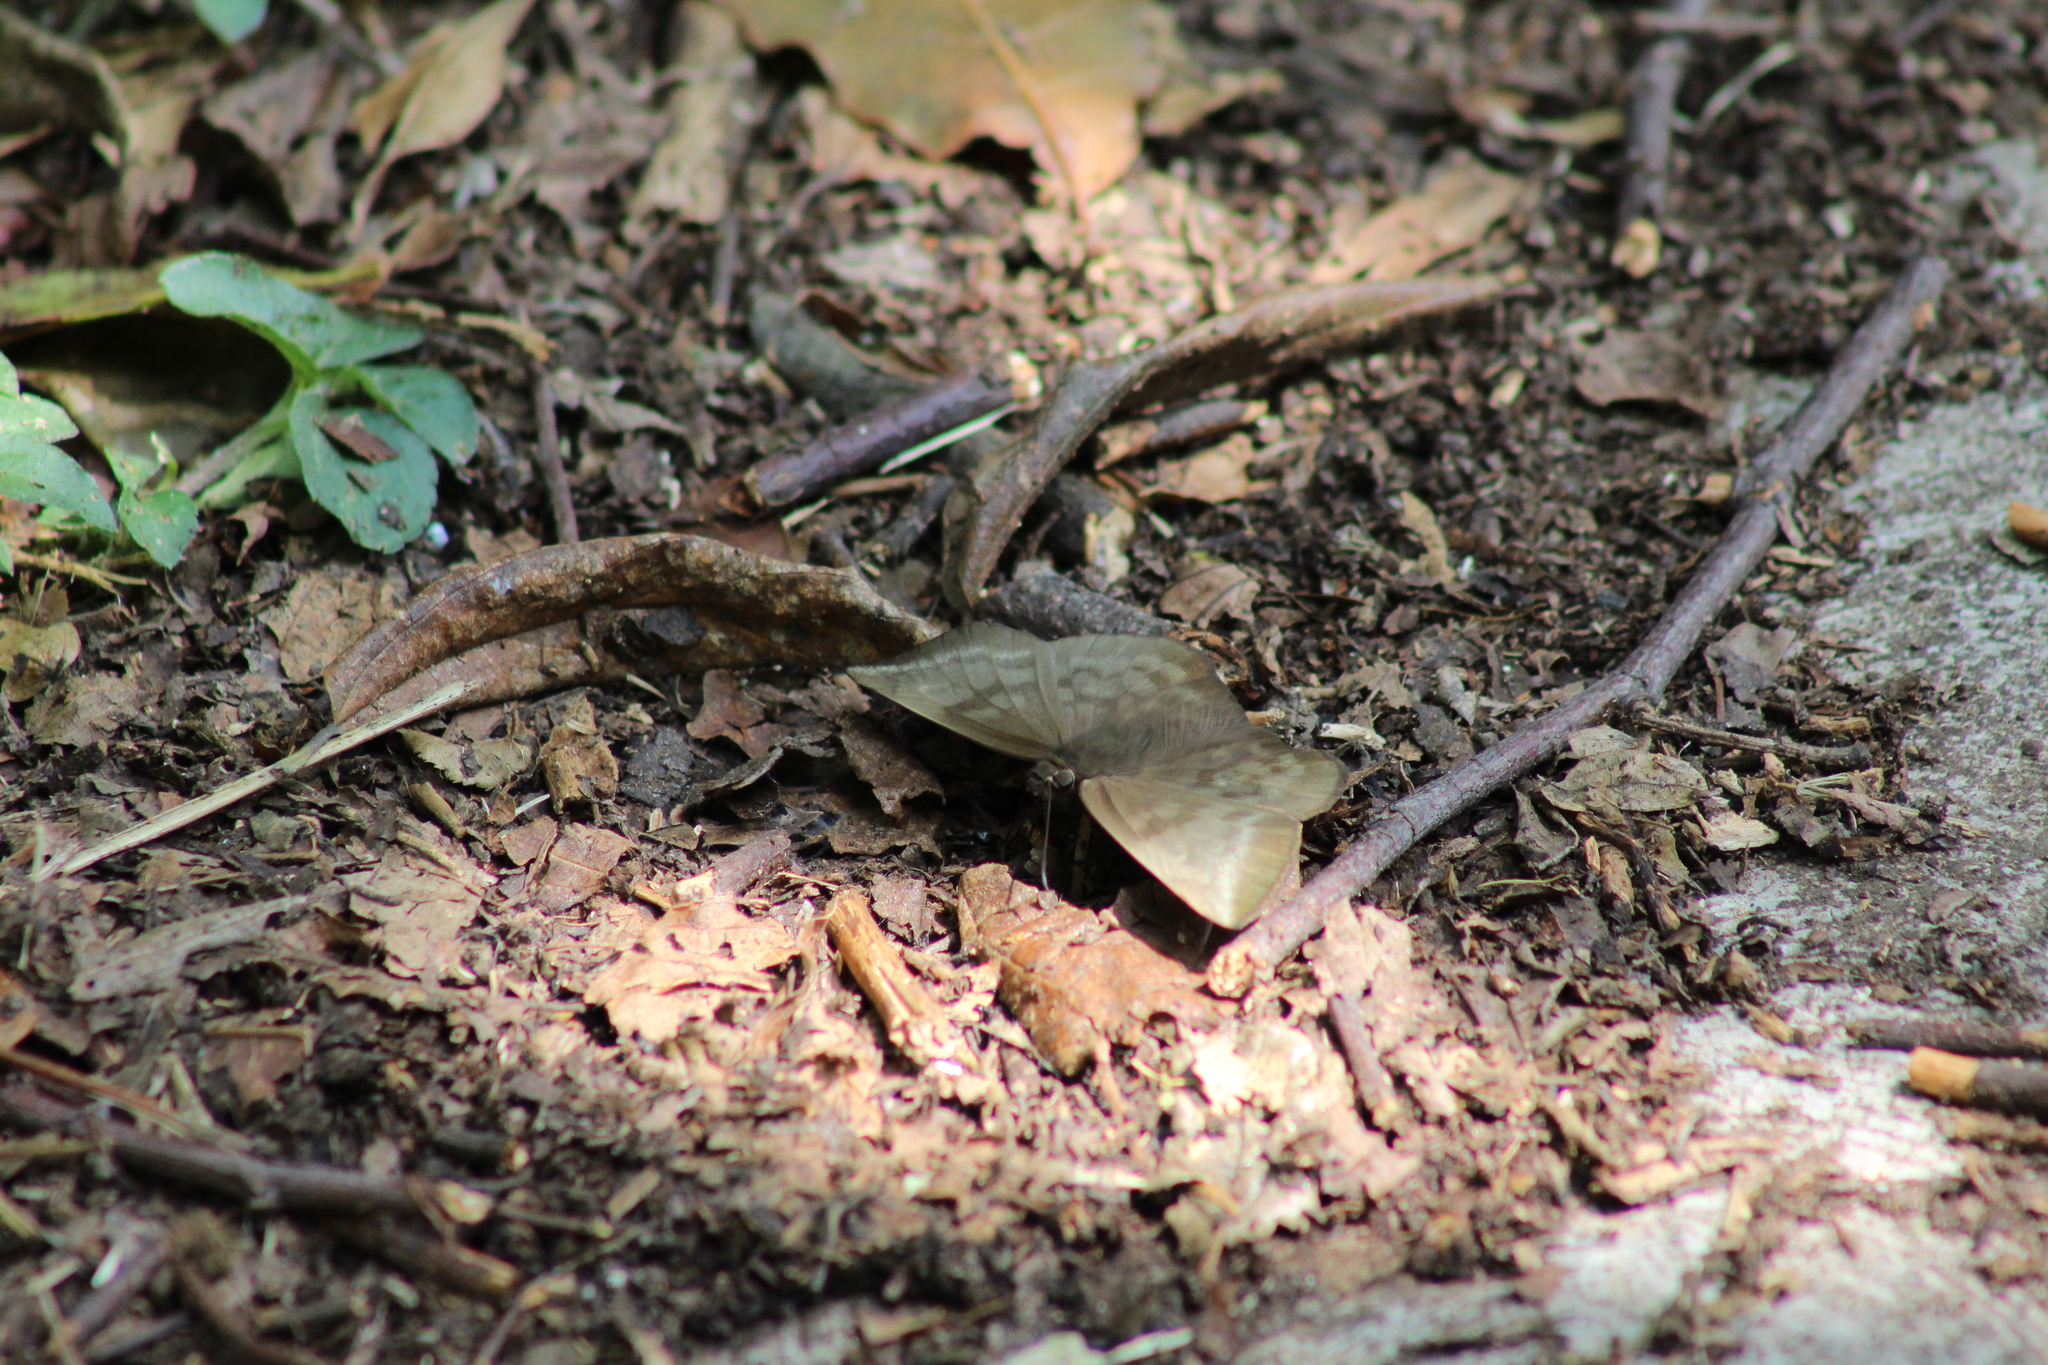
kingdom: Animalia
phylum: Arthropoda
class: Insecta
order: Lepidoptera
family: Hesperiidae
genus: Achlyodes
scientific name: Achlyodes pallida
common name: Pale sicklewing
